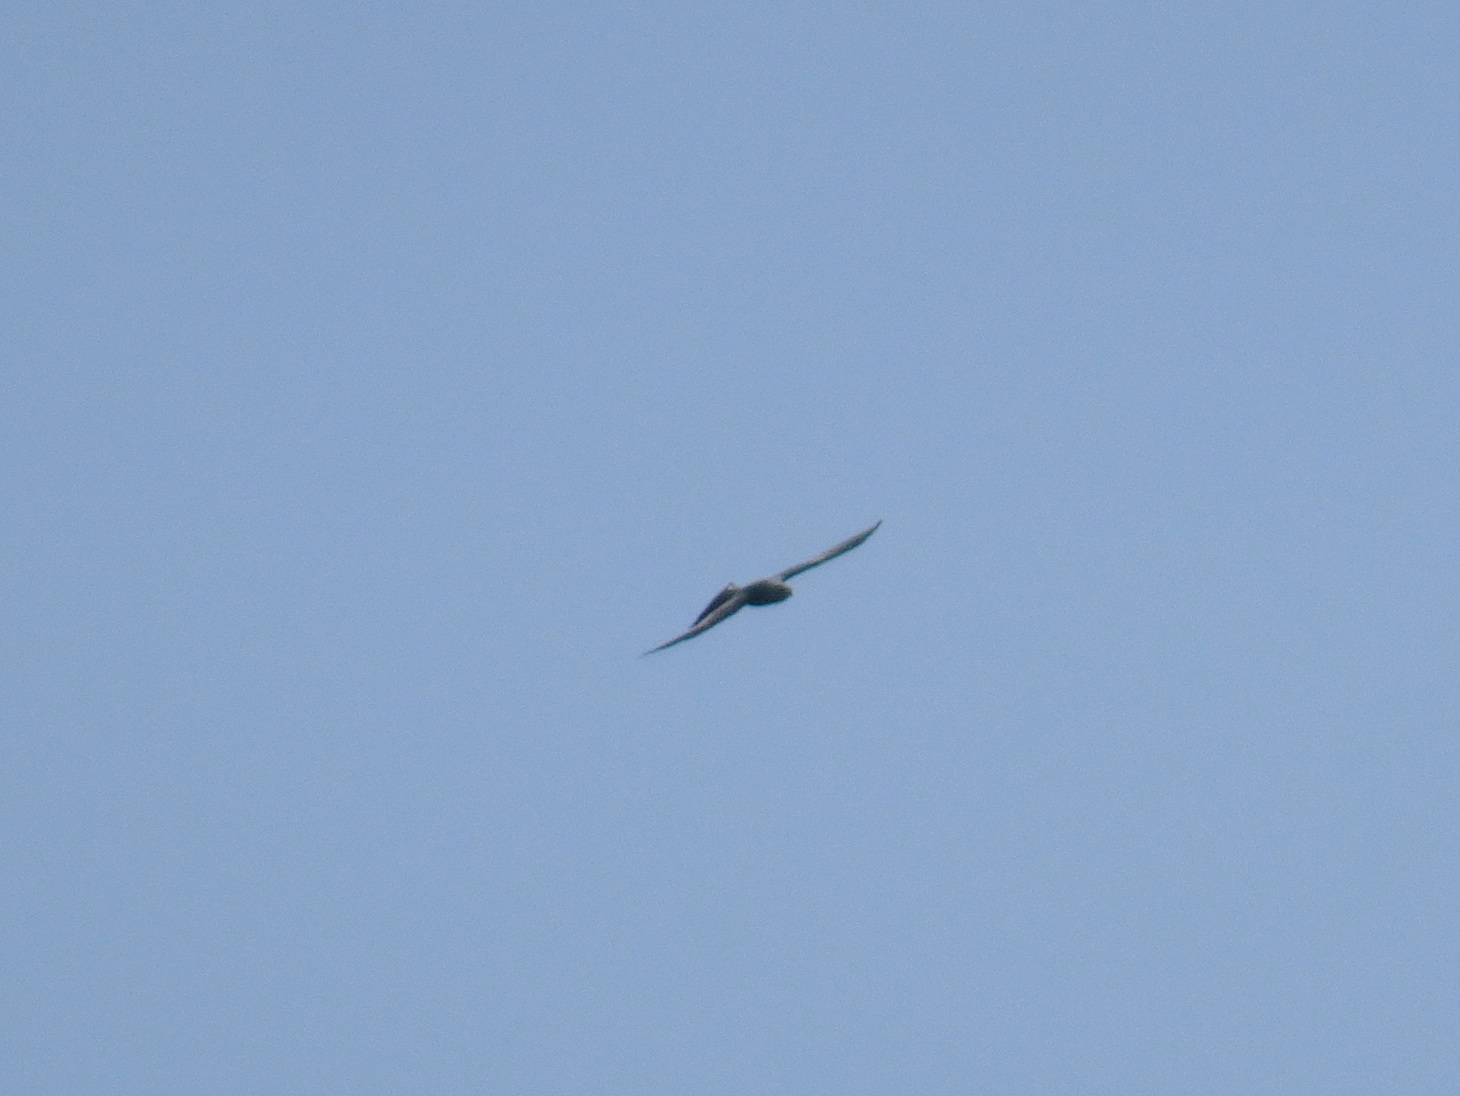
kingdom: Animalia
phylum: Chordata
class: Aves
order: Accipitriformes
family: Accipitridae
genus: Ictinia
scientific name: Ictinia mississippiensis
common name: Mississippi kite
